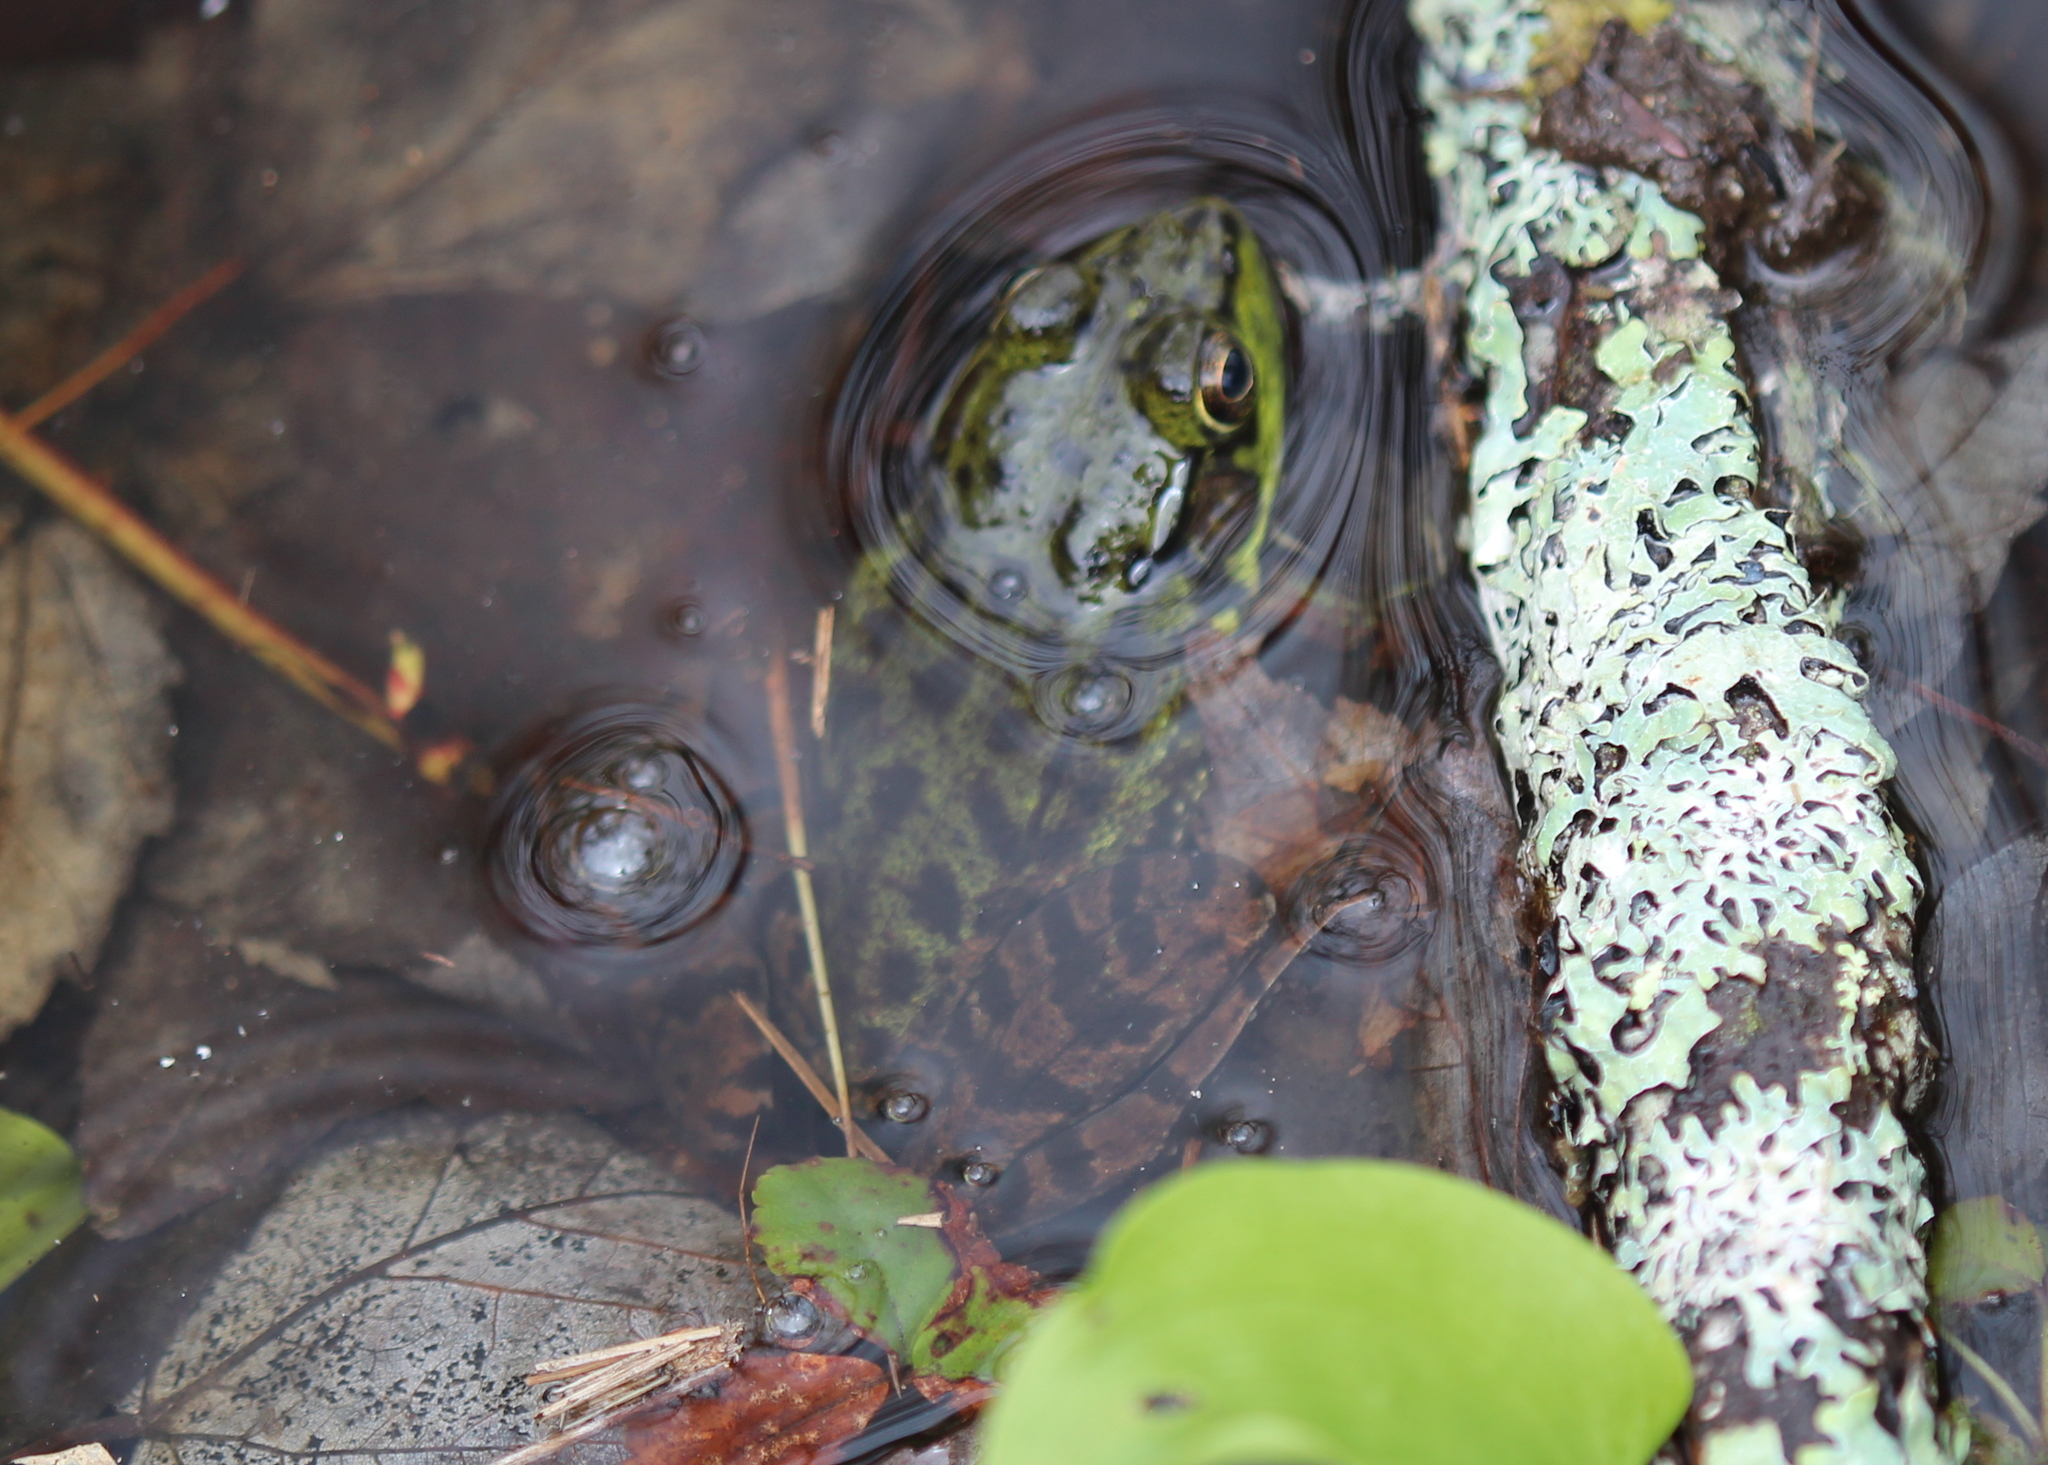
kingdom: Animalia
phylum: Chordata
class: Amphibia
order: Anura
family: Ranidae
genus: Lithobates
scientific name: Lithobates clamitans
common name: Green frog
